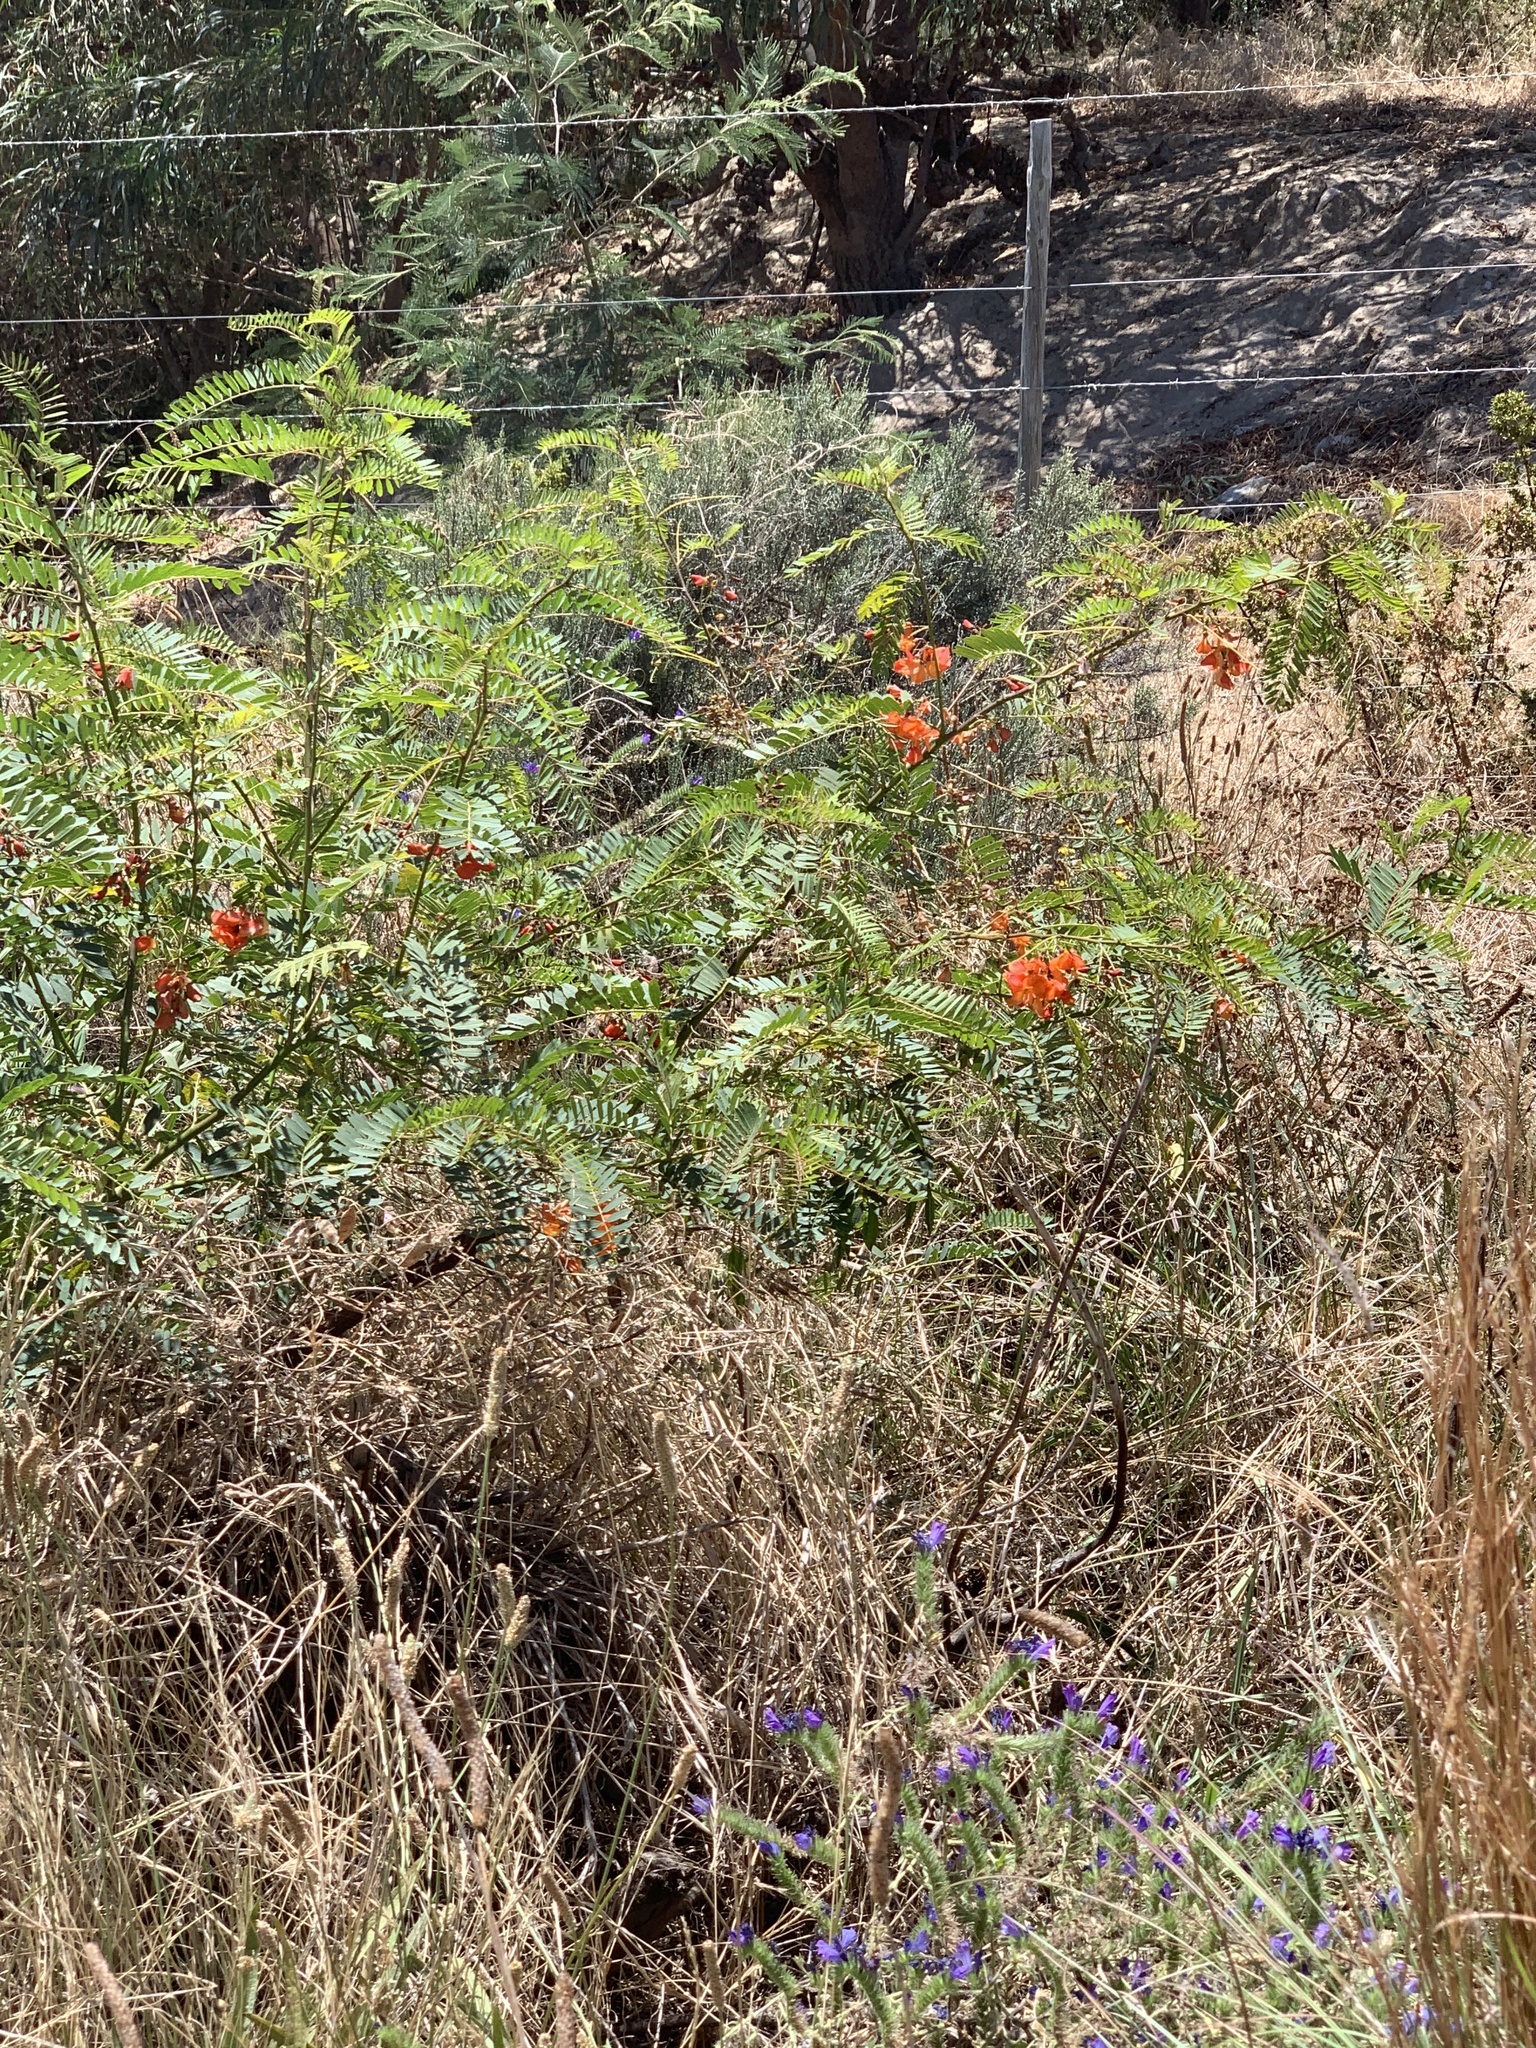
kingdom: Plantae
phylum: Tracheophyta
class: Magnoliopsida
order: Fabales
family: Fabaceae
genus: Sesbania
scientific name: Sesbania punicea
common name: Rattlebox
